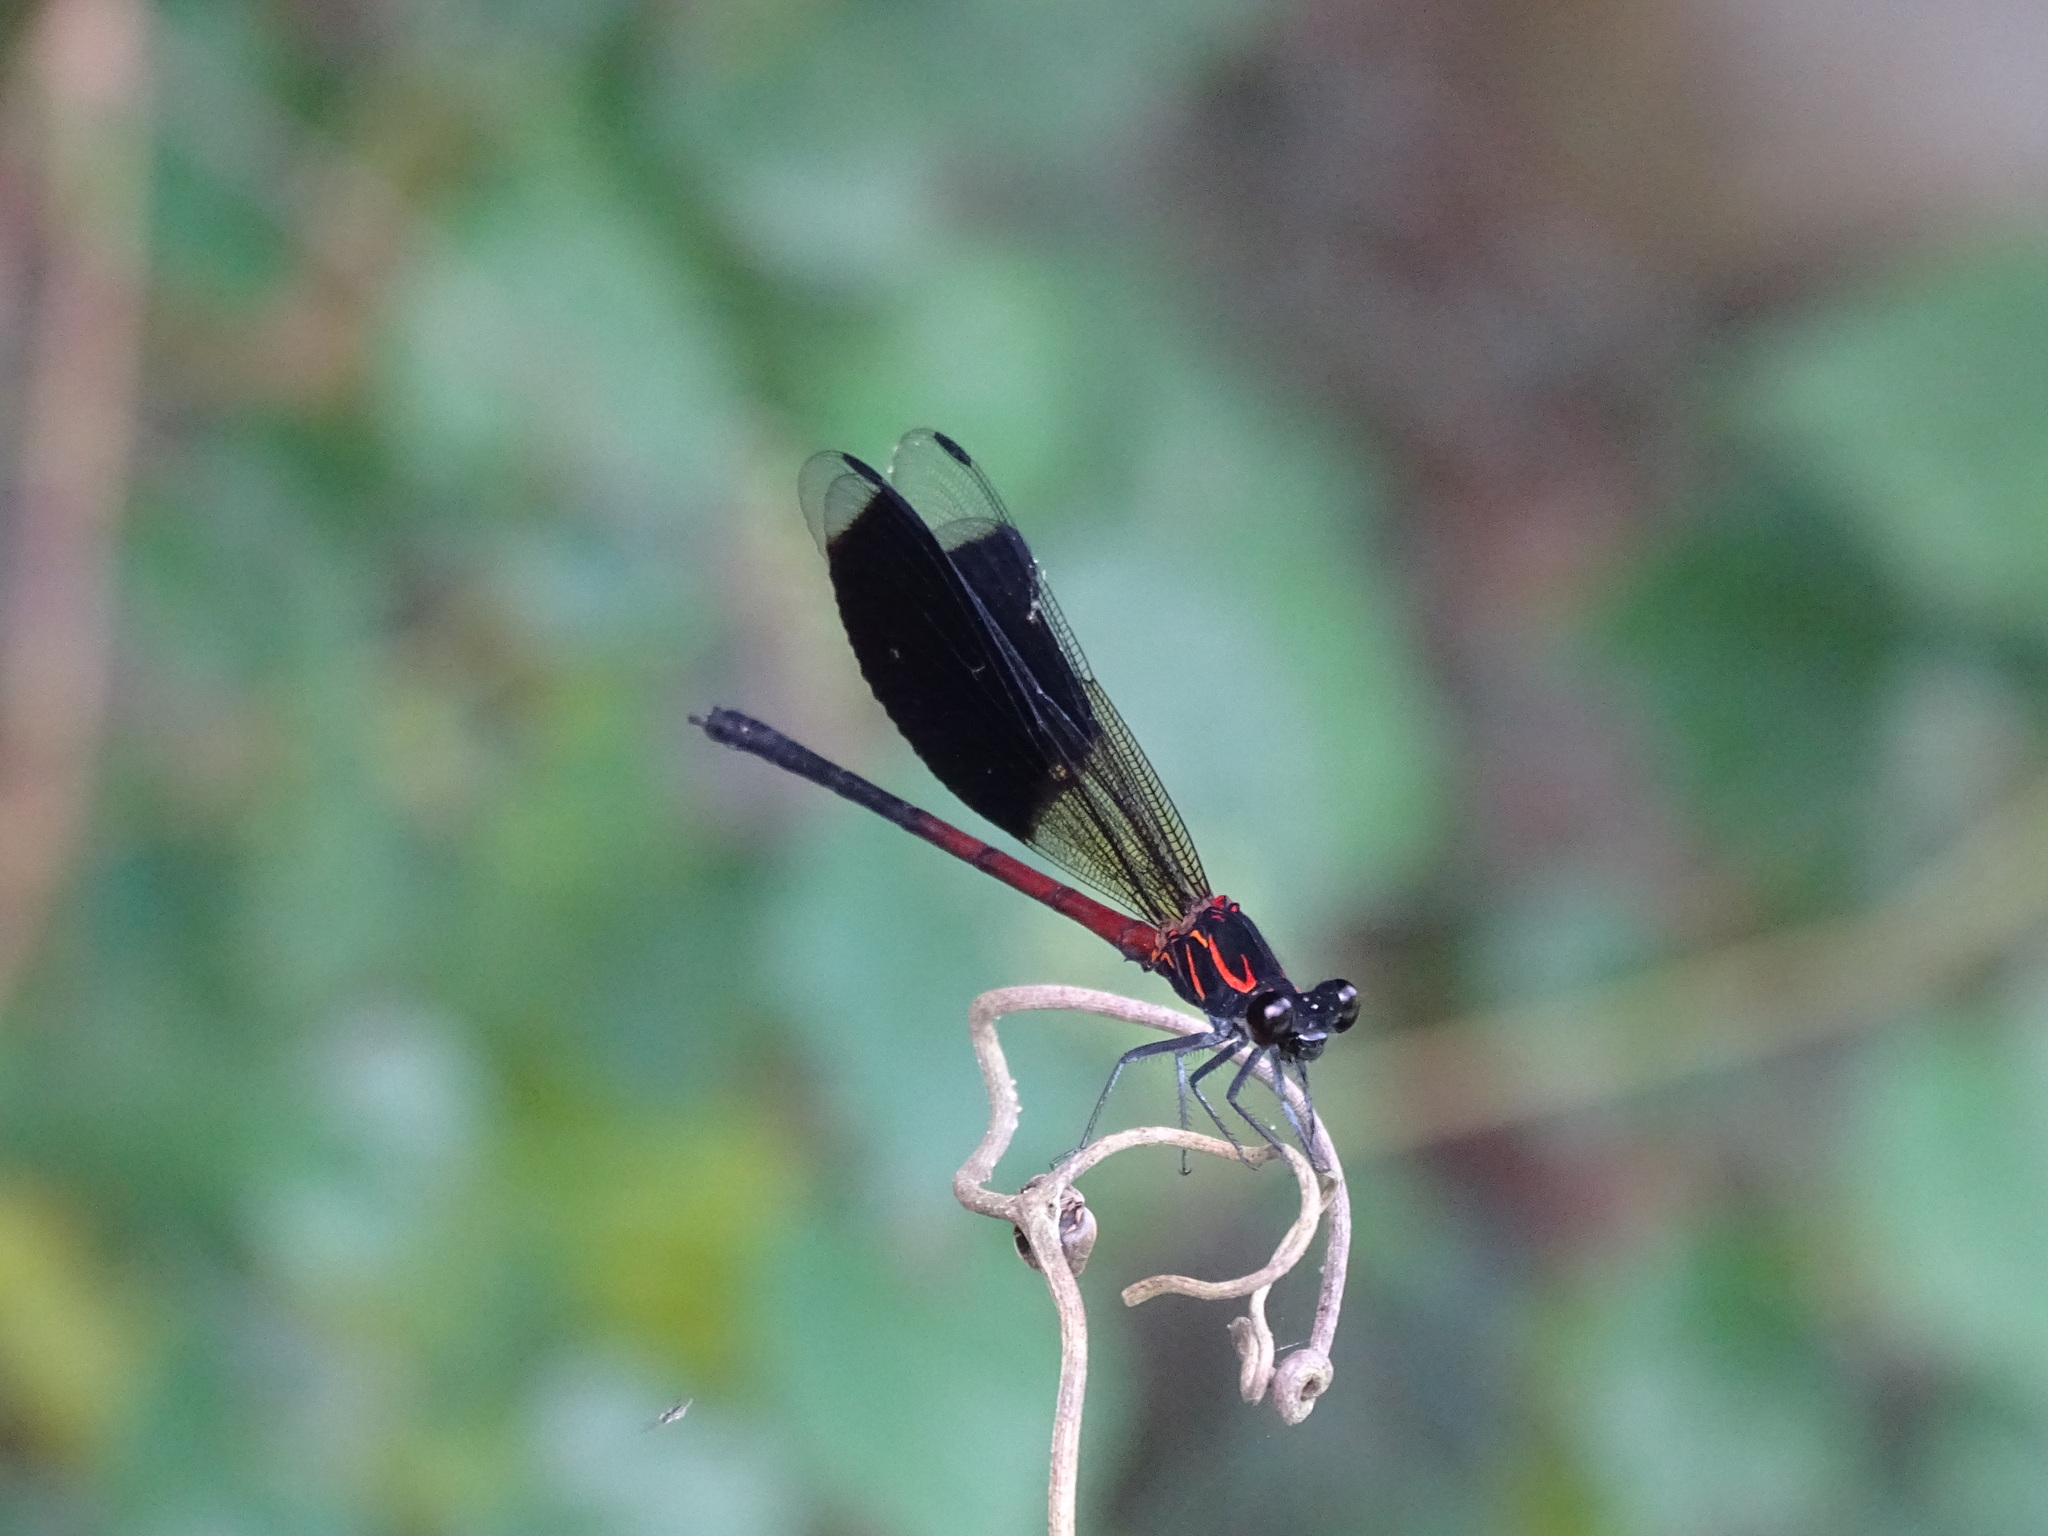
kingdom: Animalia
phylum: Arthropoda
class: Insecta
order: Odonata
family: Euphaeidae
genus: Euphaea
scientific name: Euphaea formosa
